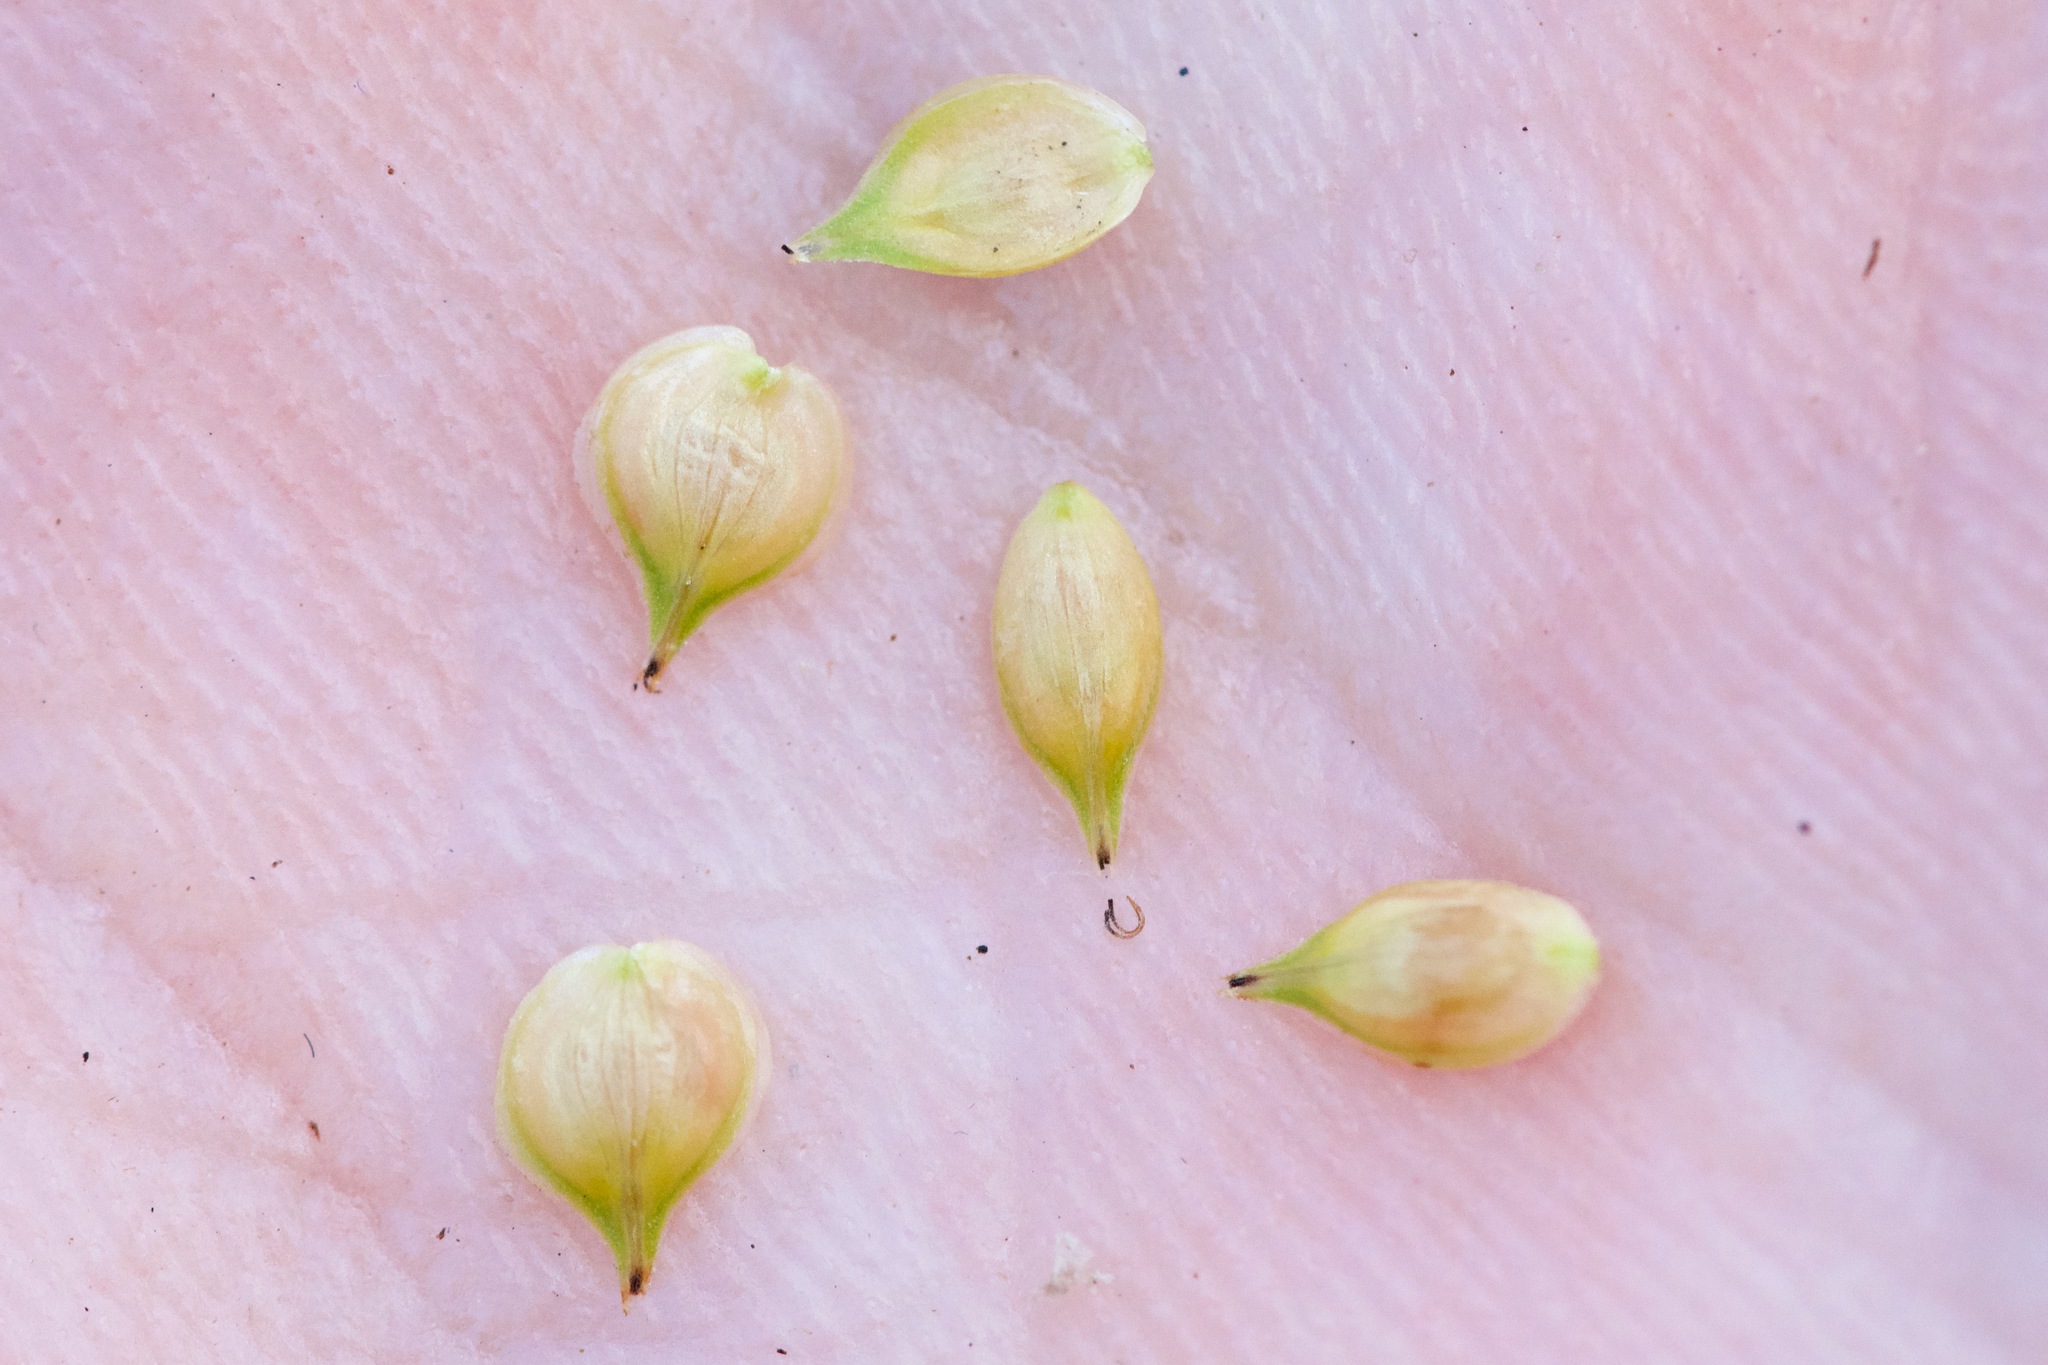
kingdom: Plantae
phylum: Tracheophyta
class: Liliopsida
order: Poales
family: Cyperaceae
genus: Carex
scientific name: Carex normalis
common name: Greater straw sedge
